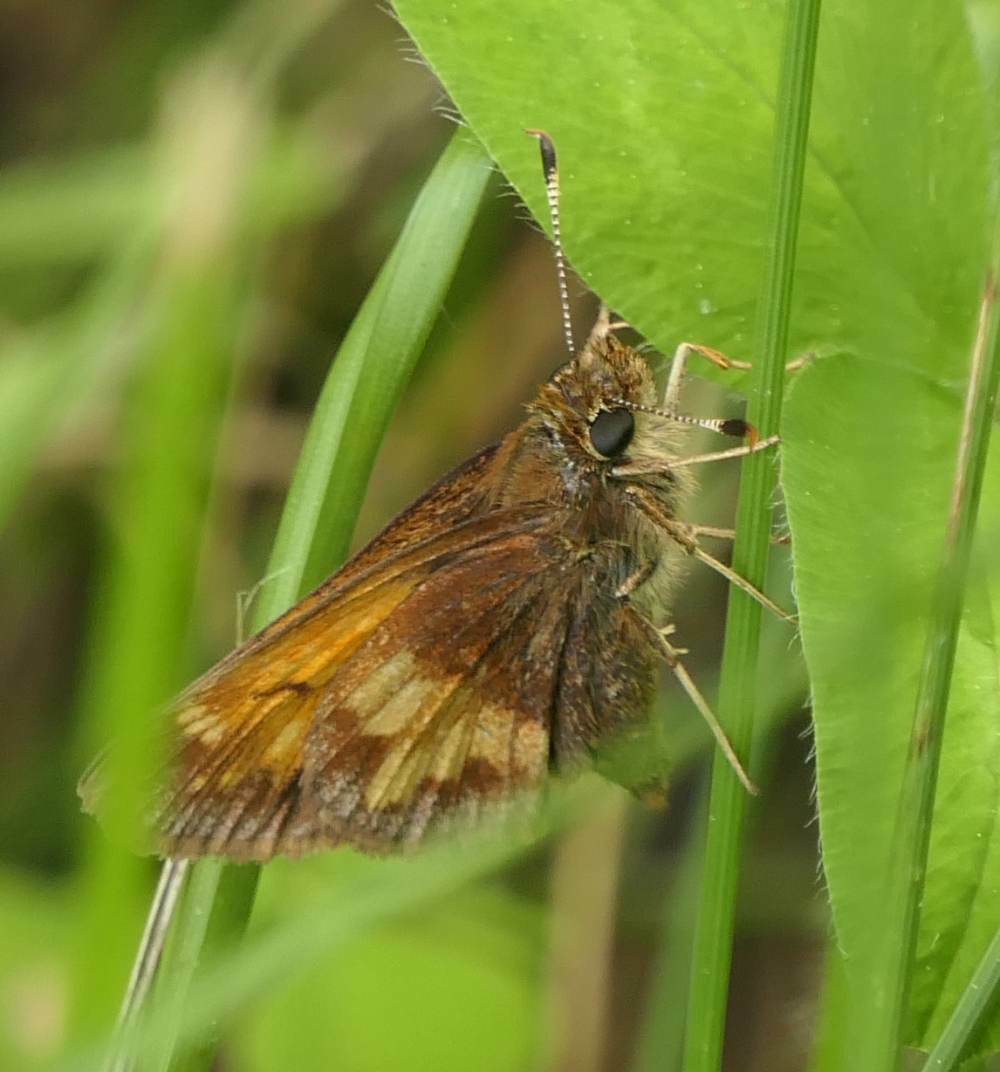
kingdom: Animalia
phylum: Arthropoda
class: Insecta
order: Lepidoptera
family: Hesperiidae
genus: Lon
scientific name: Lon hobomok
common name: Hobomok skipper
